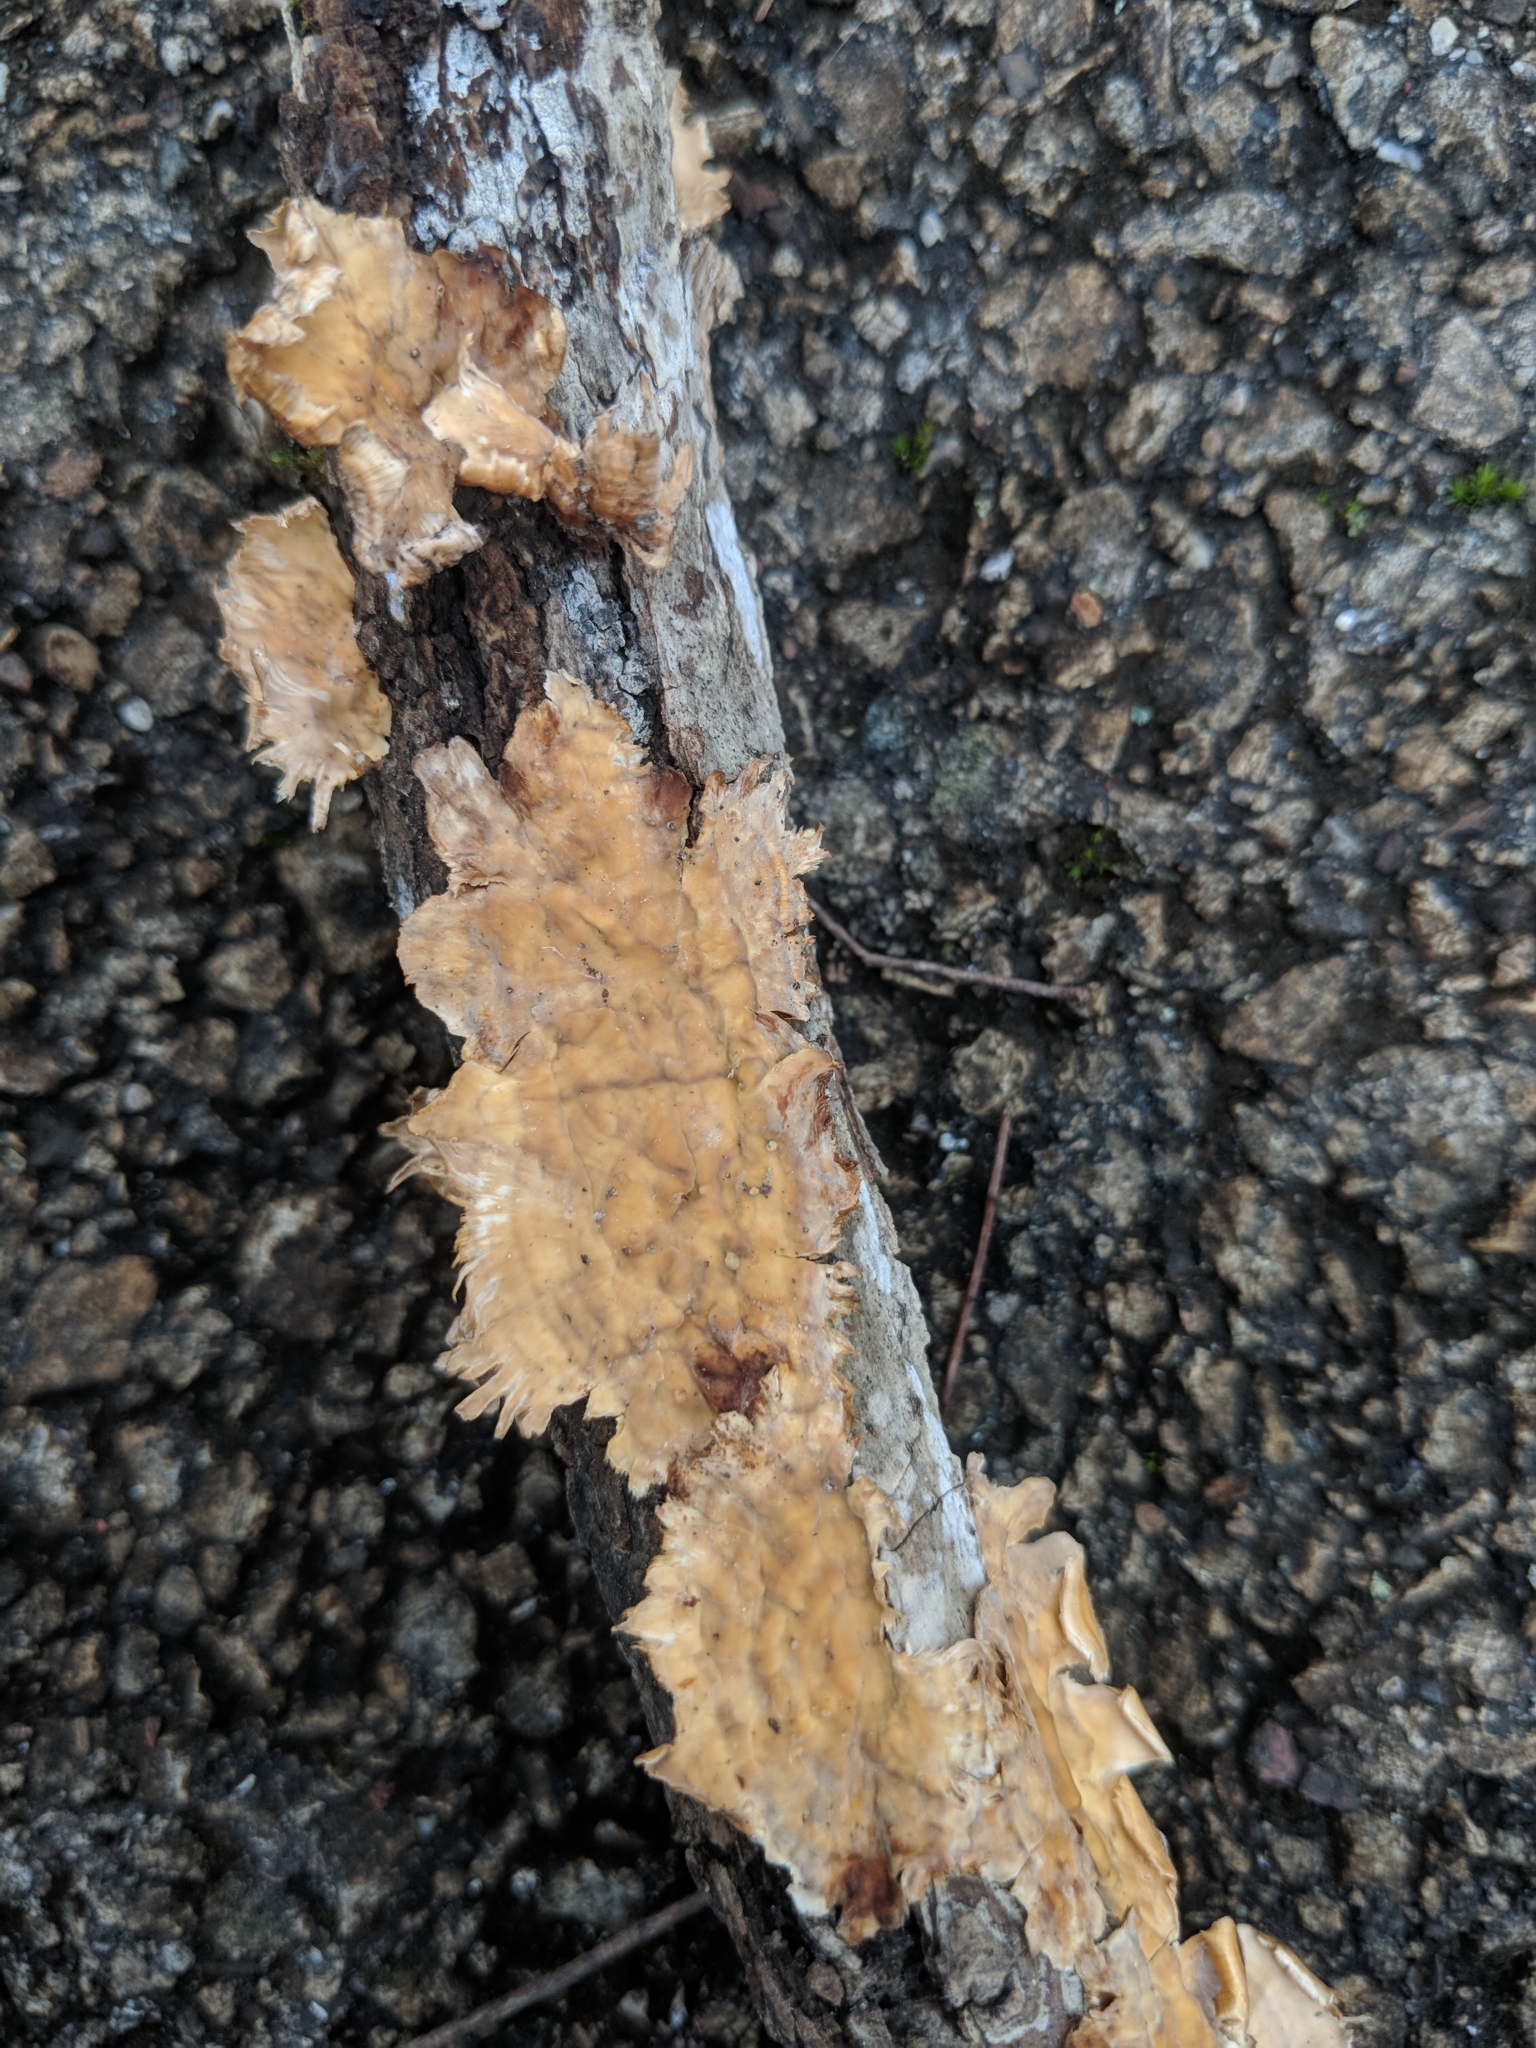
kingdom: Fungi
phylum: Basidiomycota
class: Agaricomycetes
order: Russulales
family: Stereaceae
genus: Stereum
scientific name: Stereum complicatum
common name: Crowded parchment
